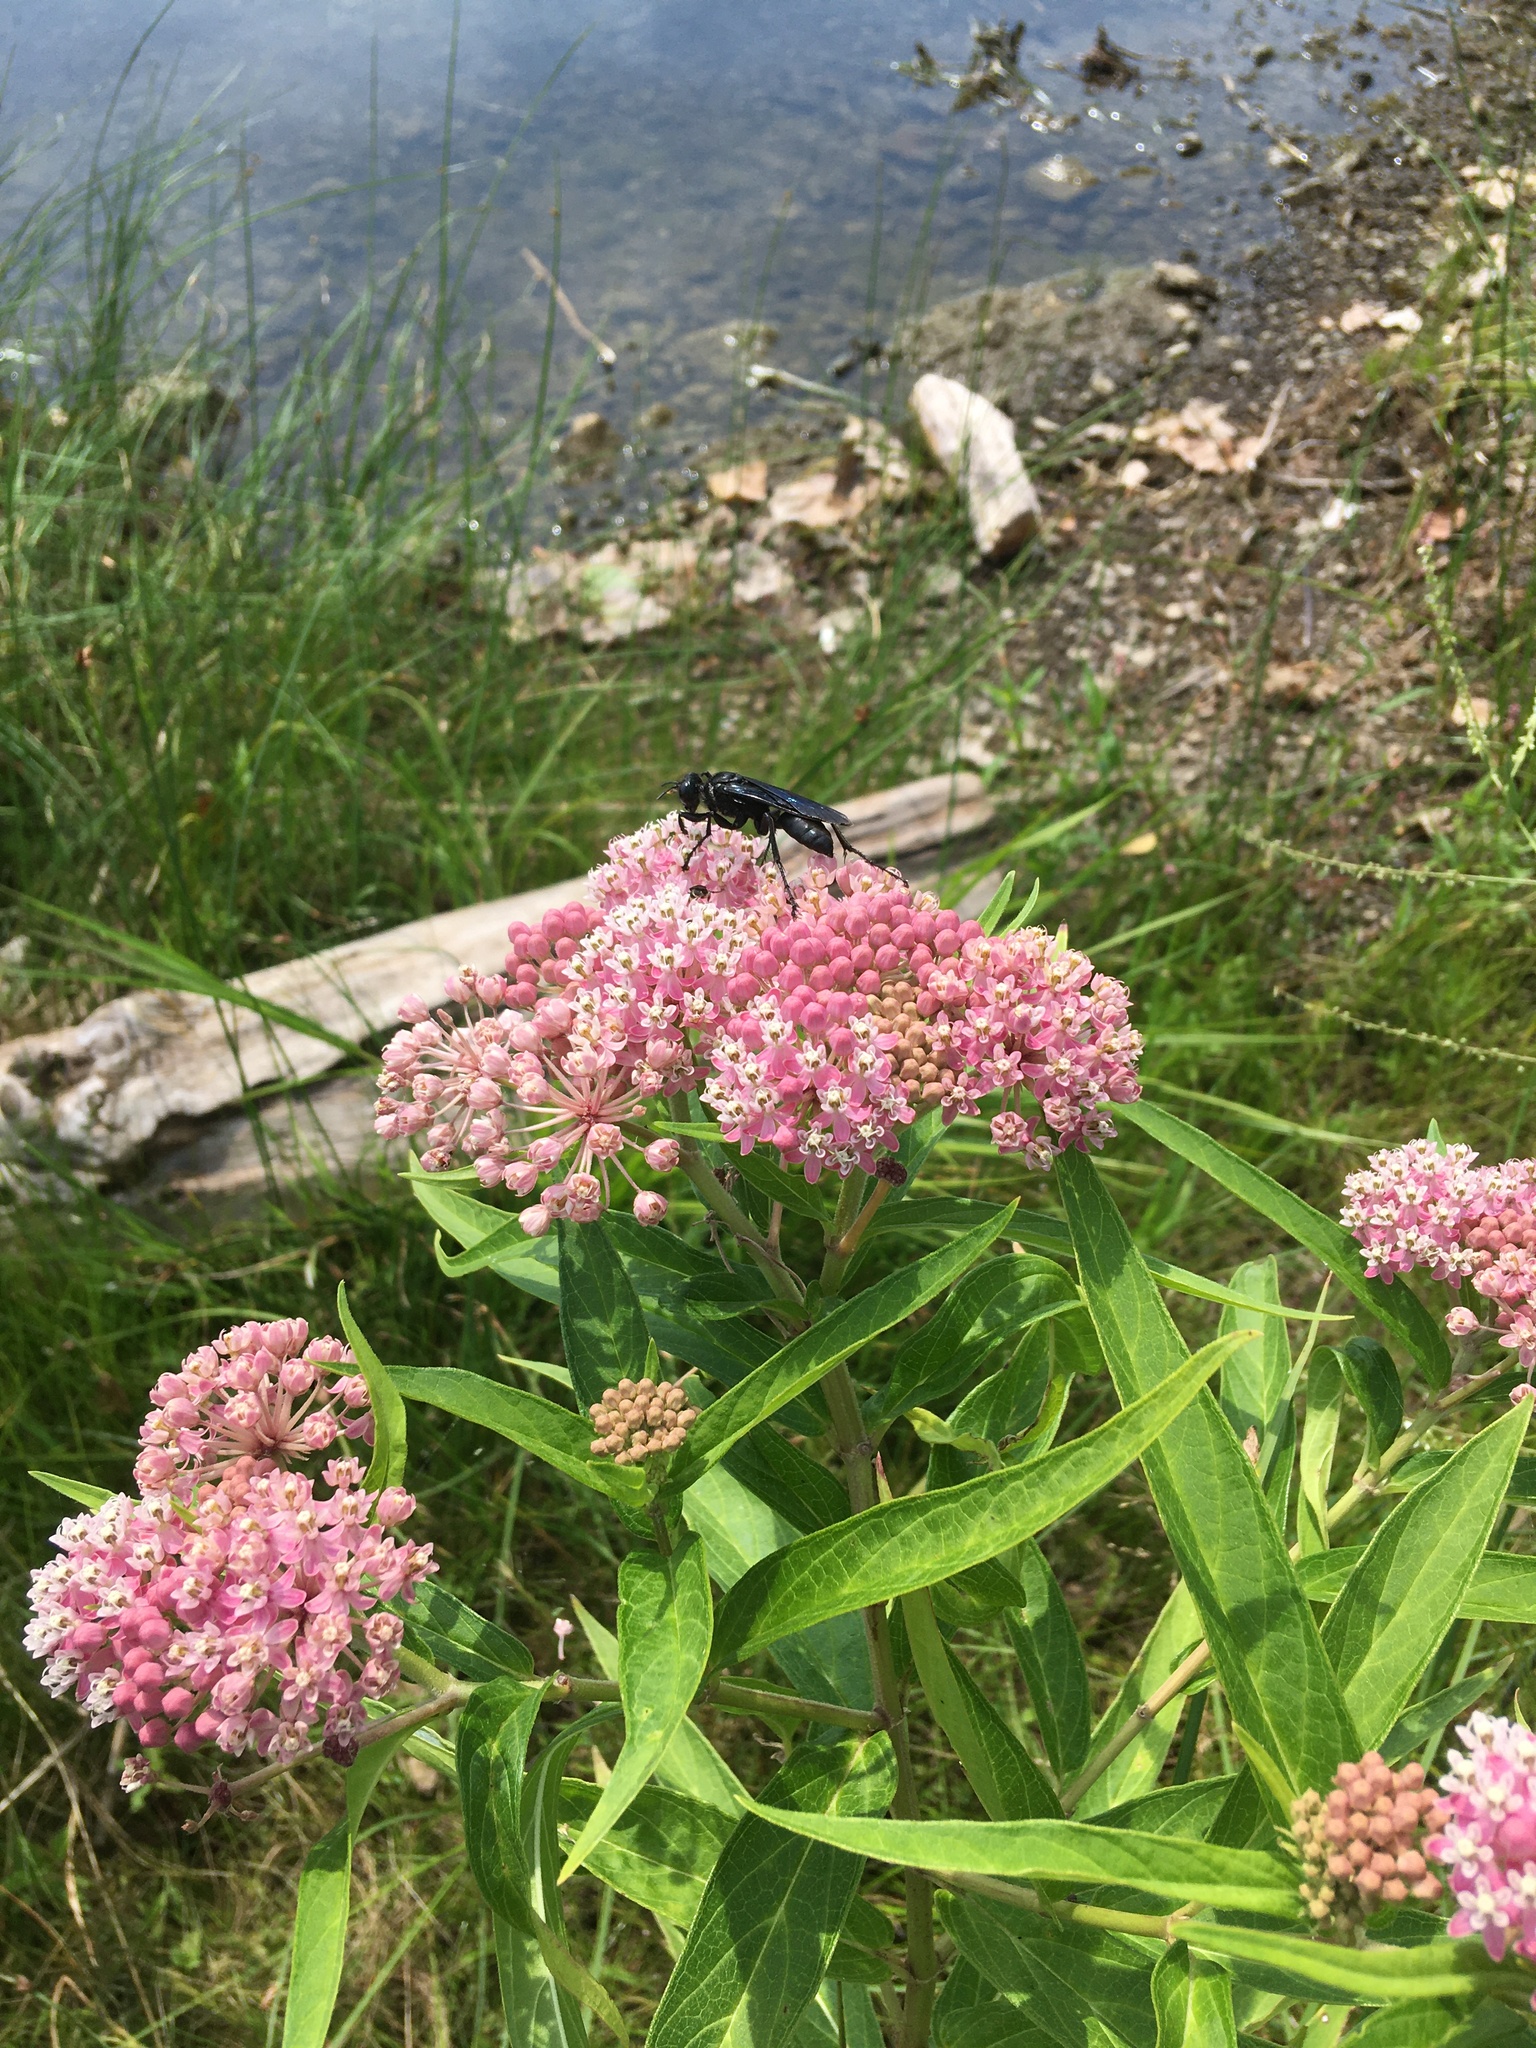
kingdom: Plantae
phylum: Tracheophyta
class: Magnoliopsida
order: Gentianales
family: Apocynaceae
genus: Asclepias
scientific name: Asclepias incarnata
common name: Swamp milkweed
